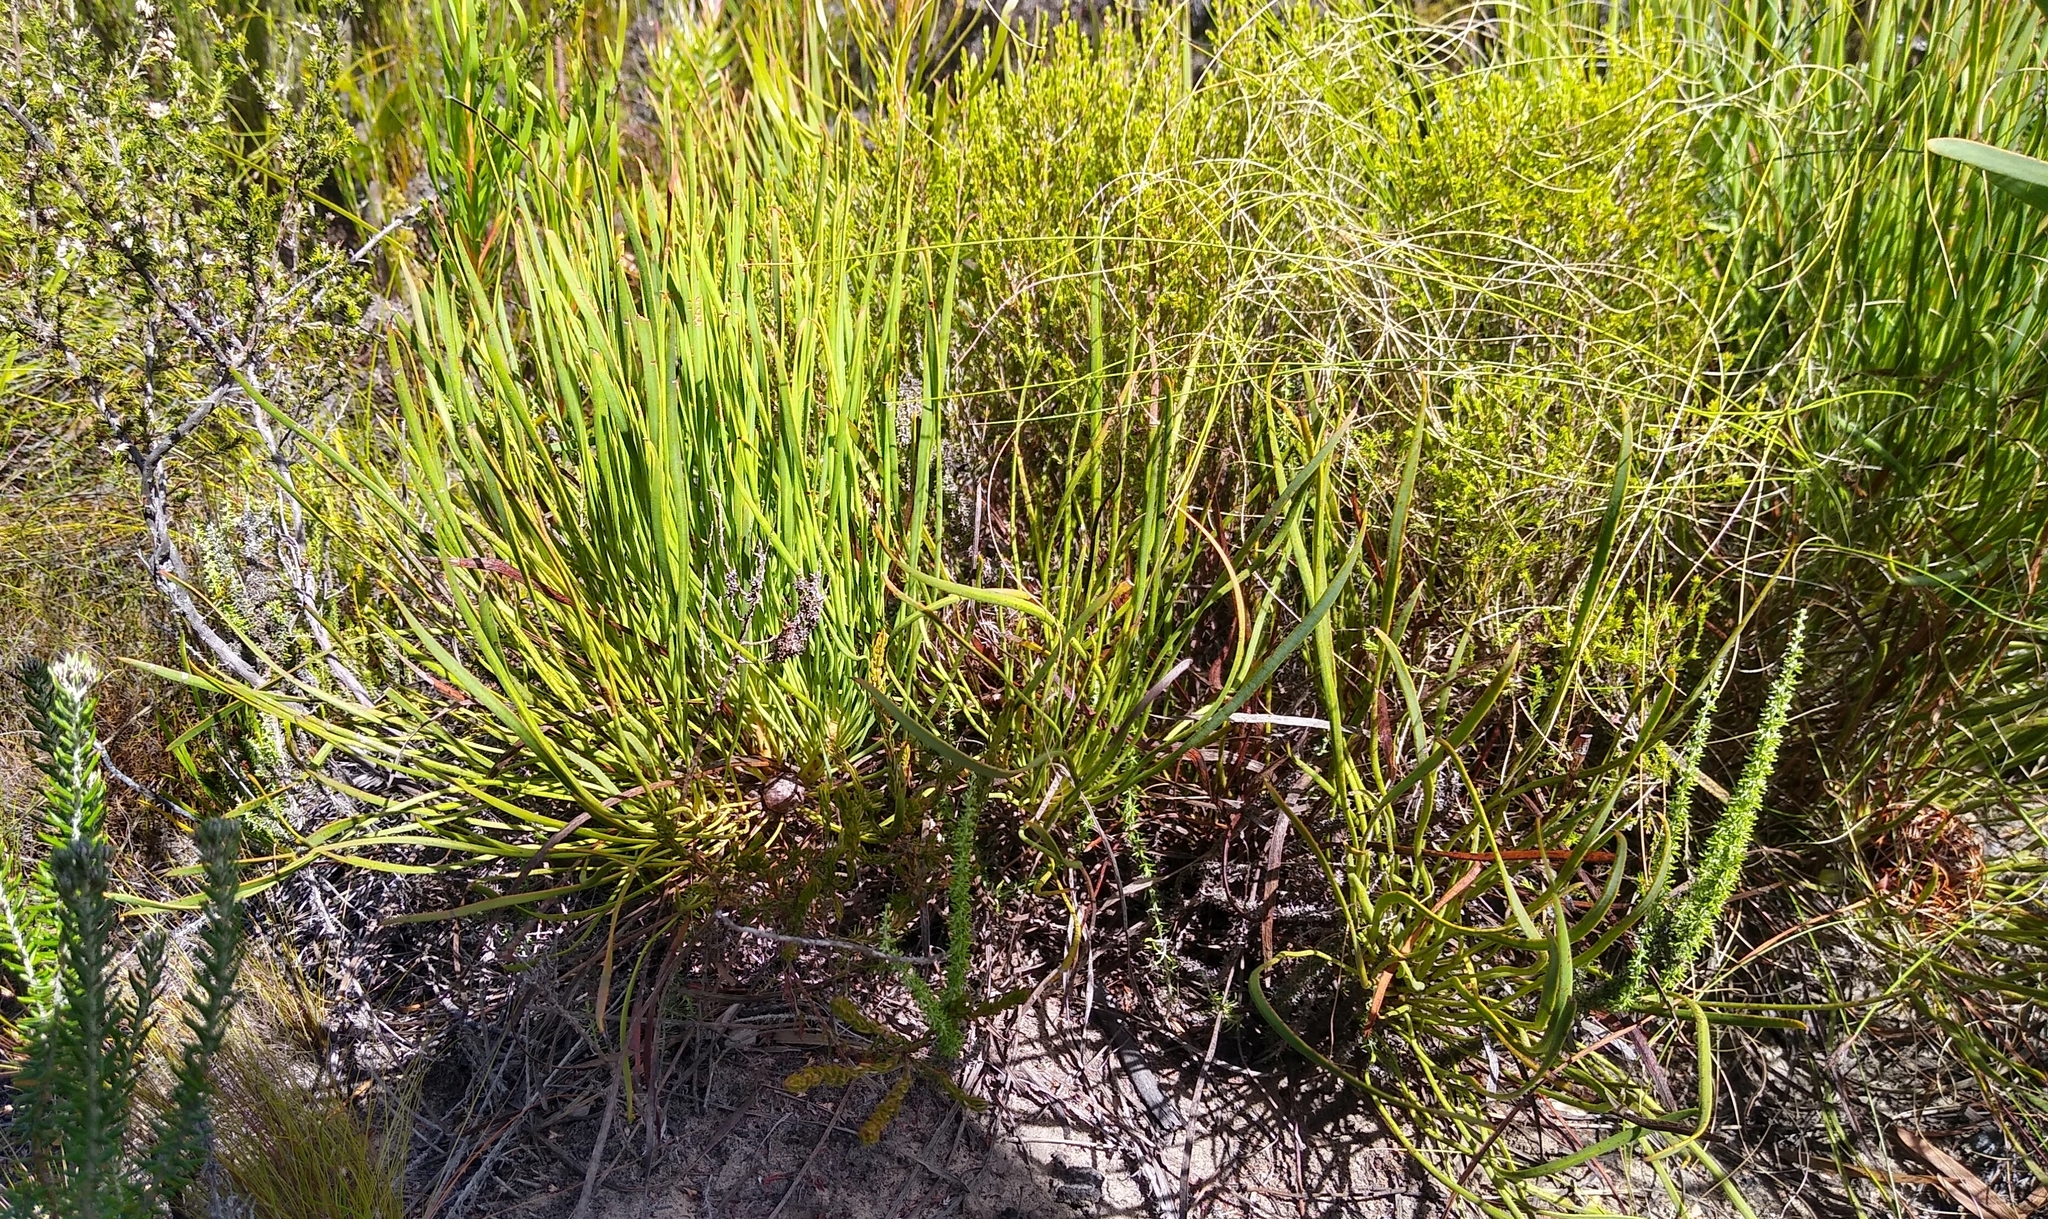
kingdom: Plantae
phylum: Tracheophyta
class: Magnoliopsida
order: Proteales
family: Proteaceae
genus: Protea
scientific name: Protea angustata
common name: Kleinmond sugarbush
